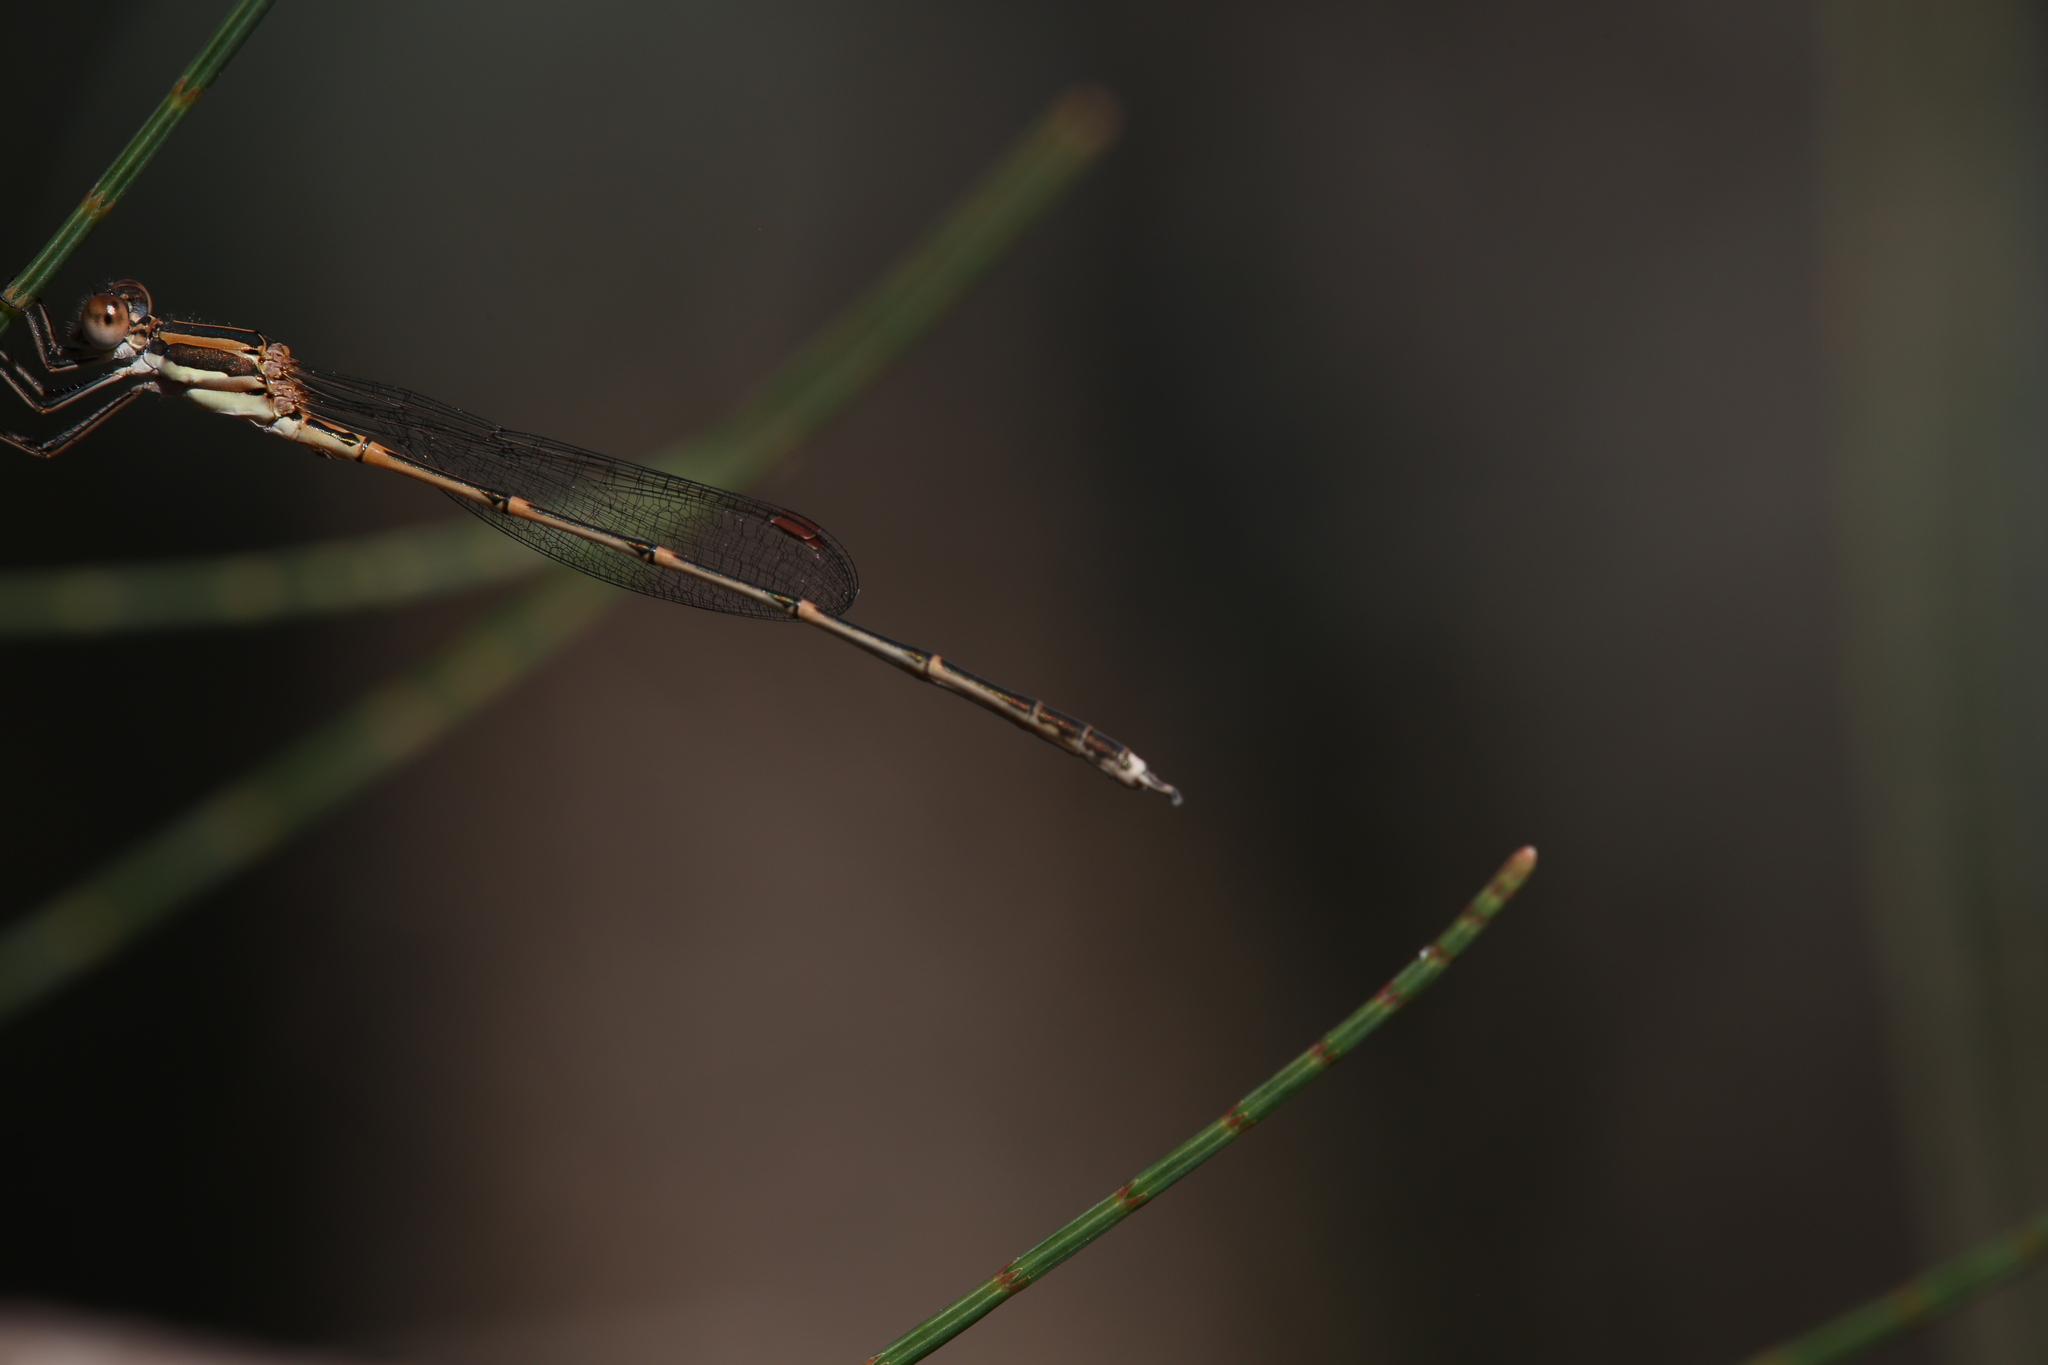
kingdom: Animalia
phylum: Arthropoda
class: Insecta
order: Odonata
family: Lestidae
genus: Austrolestes
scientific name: Austrolestes analis
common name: Slender ringtail
